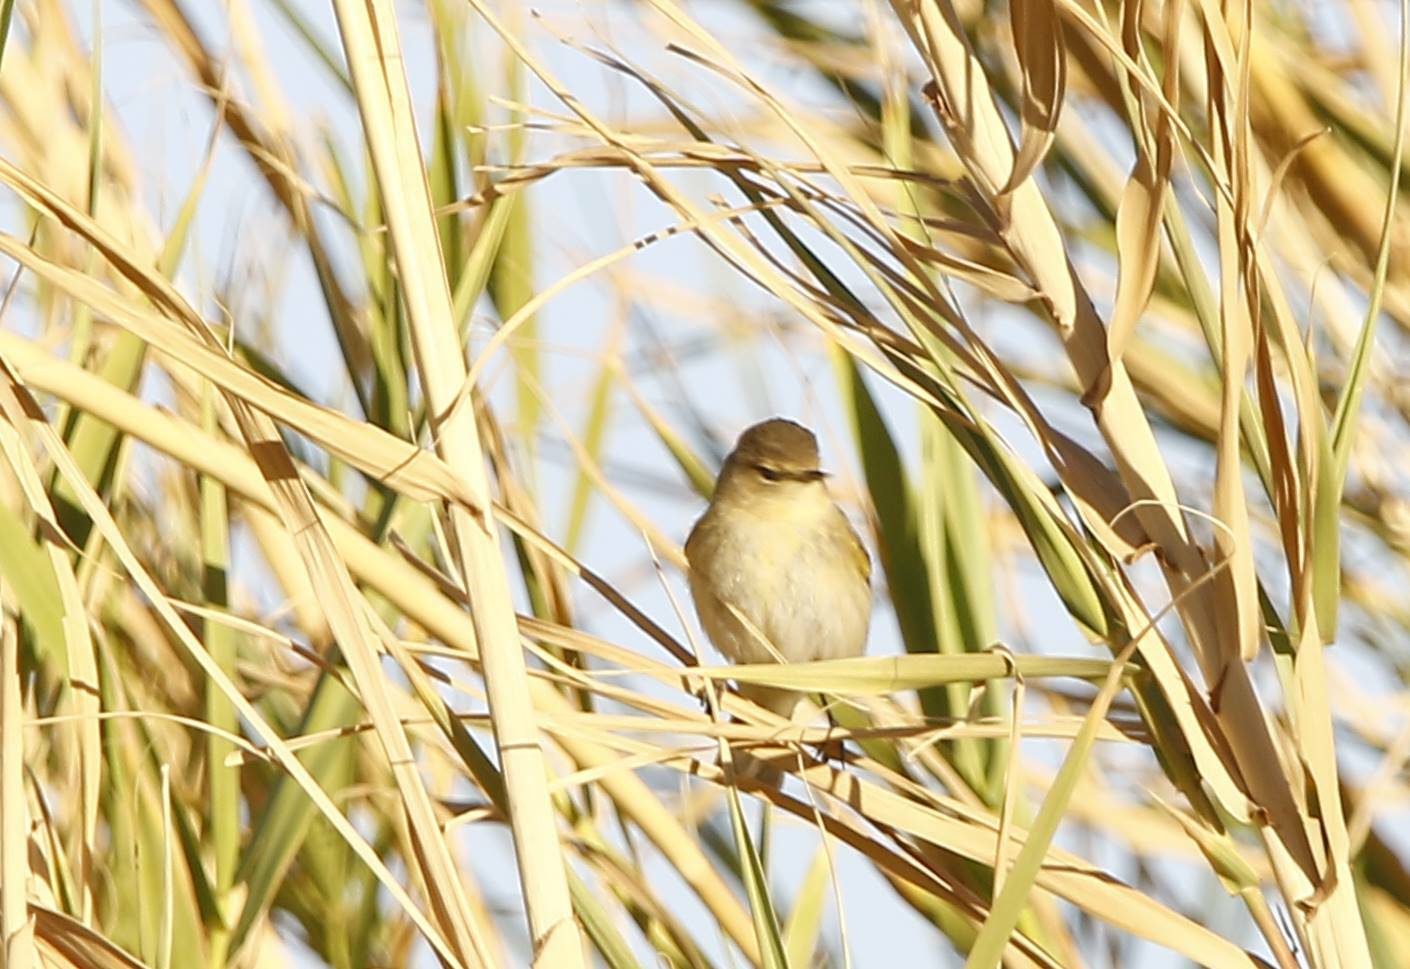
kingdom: Animalia
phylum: Chordata
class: Aves
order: Passeriformes
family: Phylloscopidae
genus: Phylloscopus
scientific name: Phylloscopus collybita
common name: Common chiffchaff
